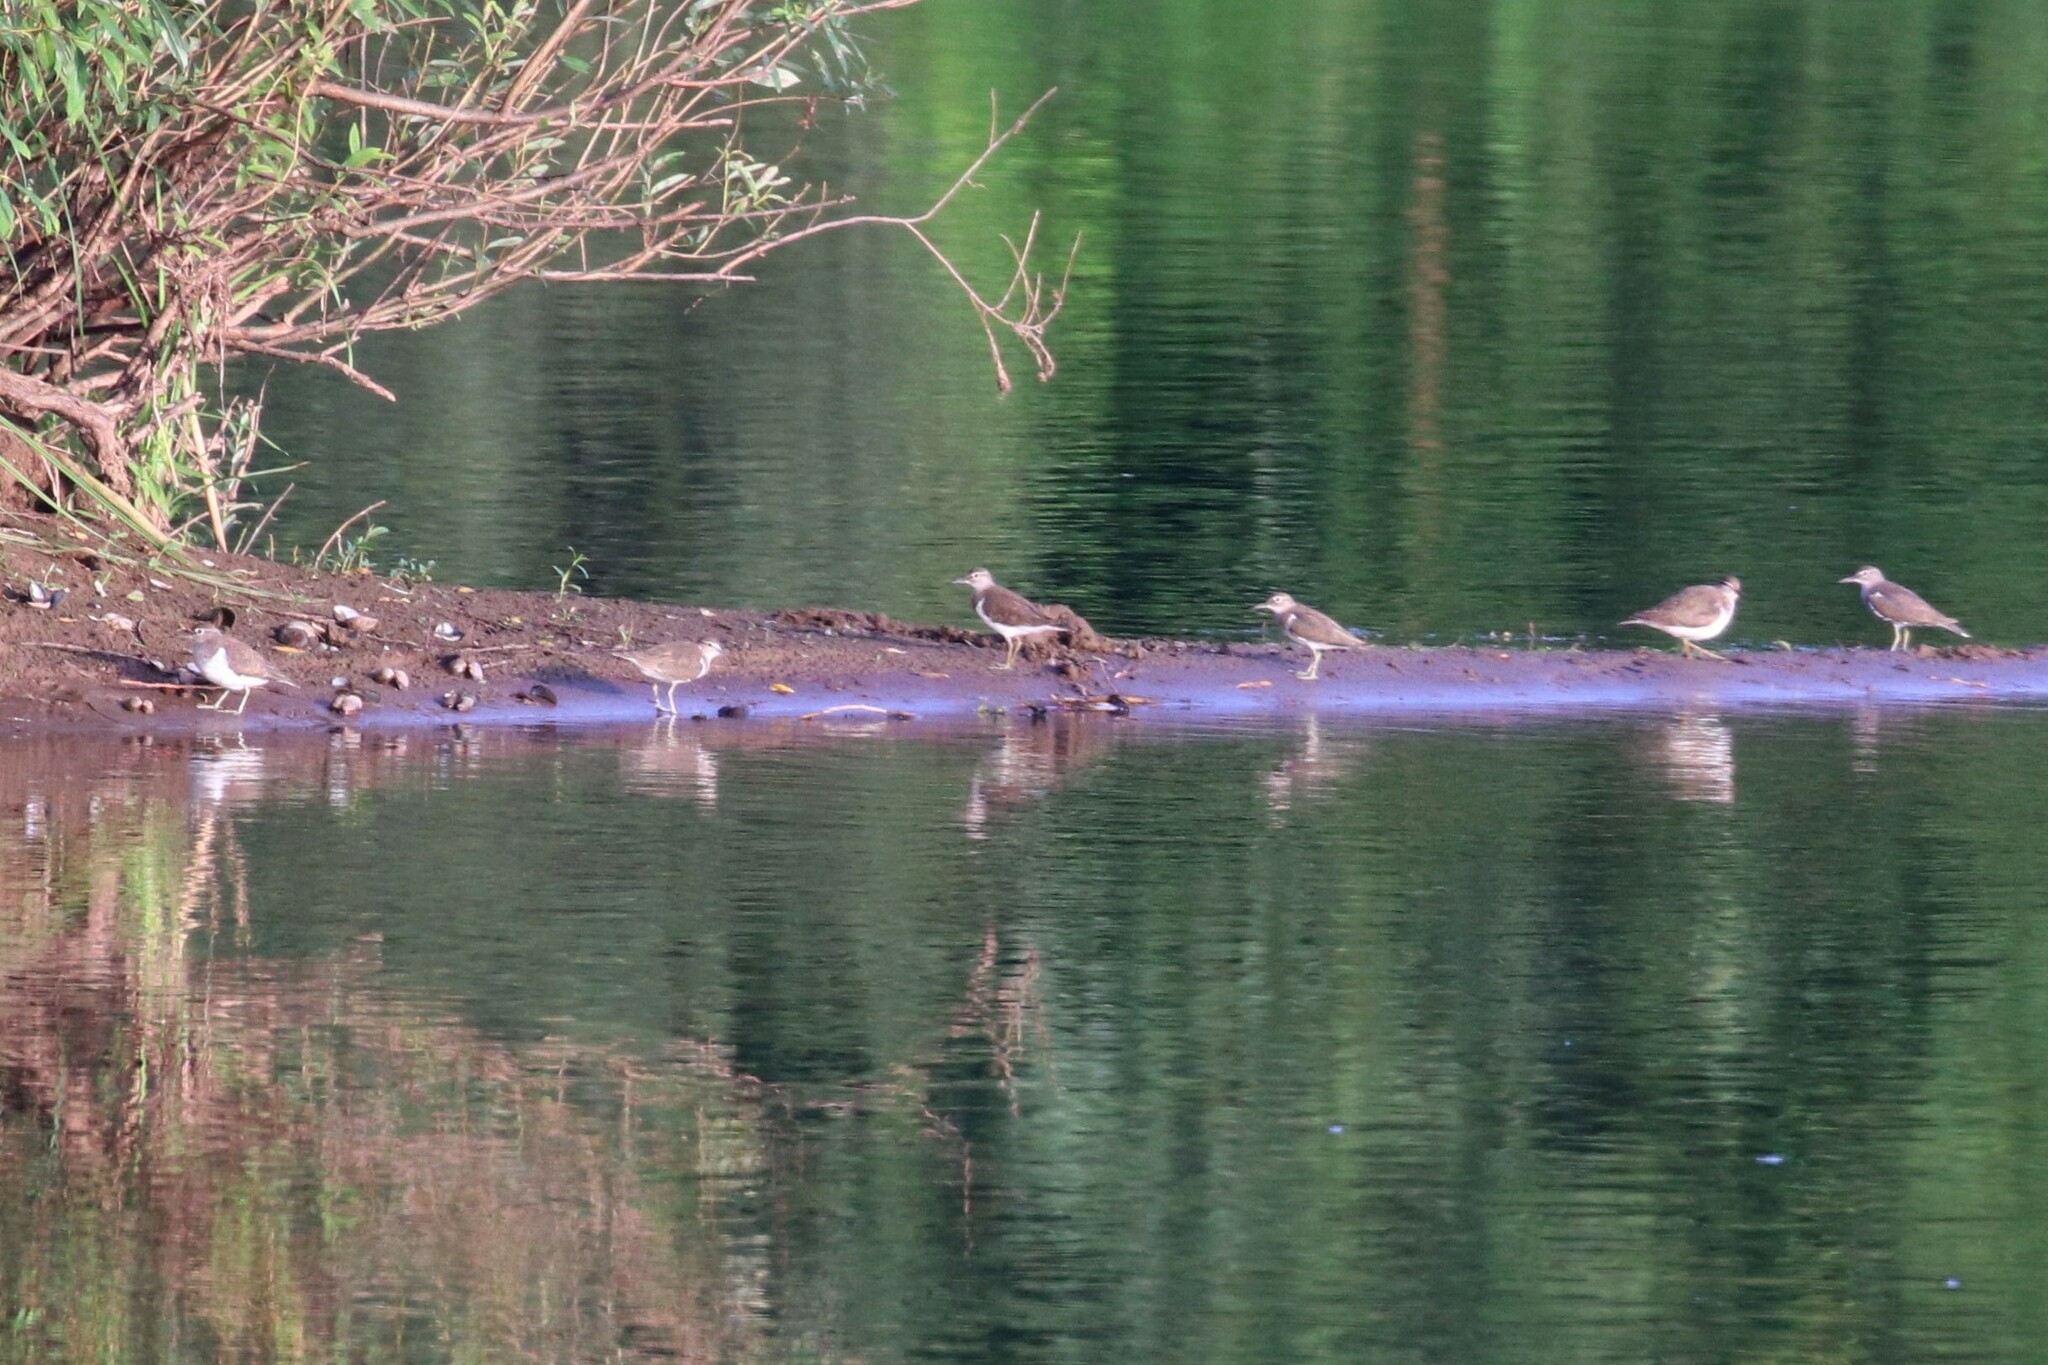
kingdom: Animalia
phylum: Chordata
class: Aves
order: Charadriiformes
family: Scolopacidae
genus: Actitis
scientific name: Actitis hypoleucos
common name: Common sandpiper
